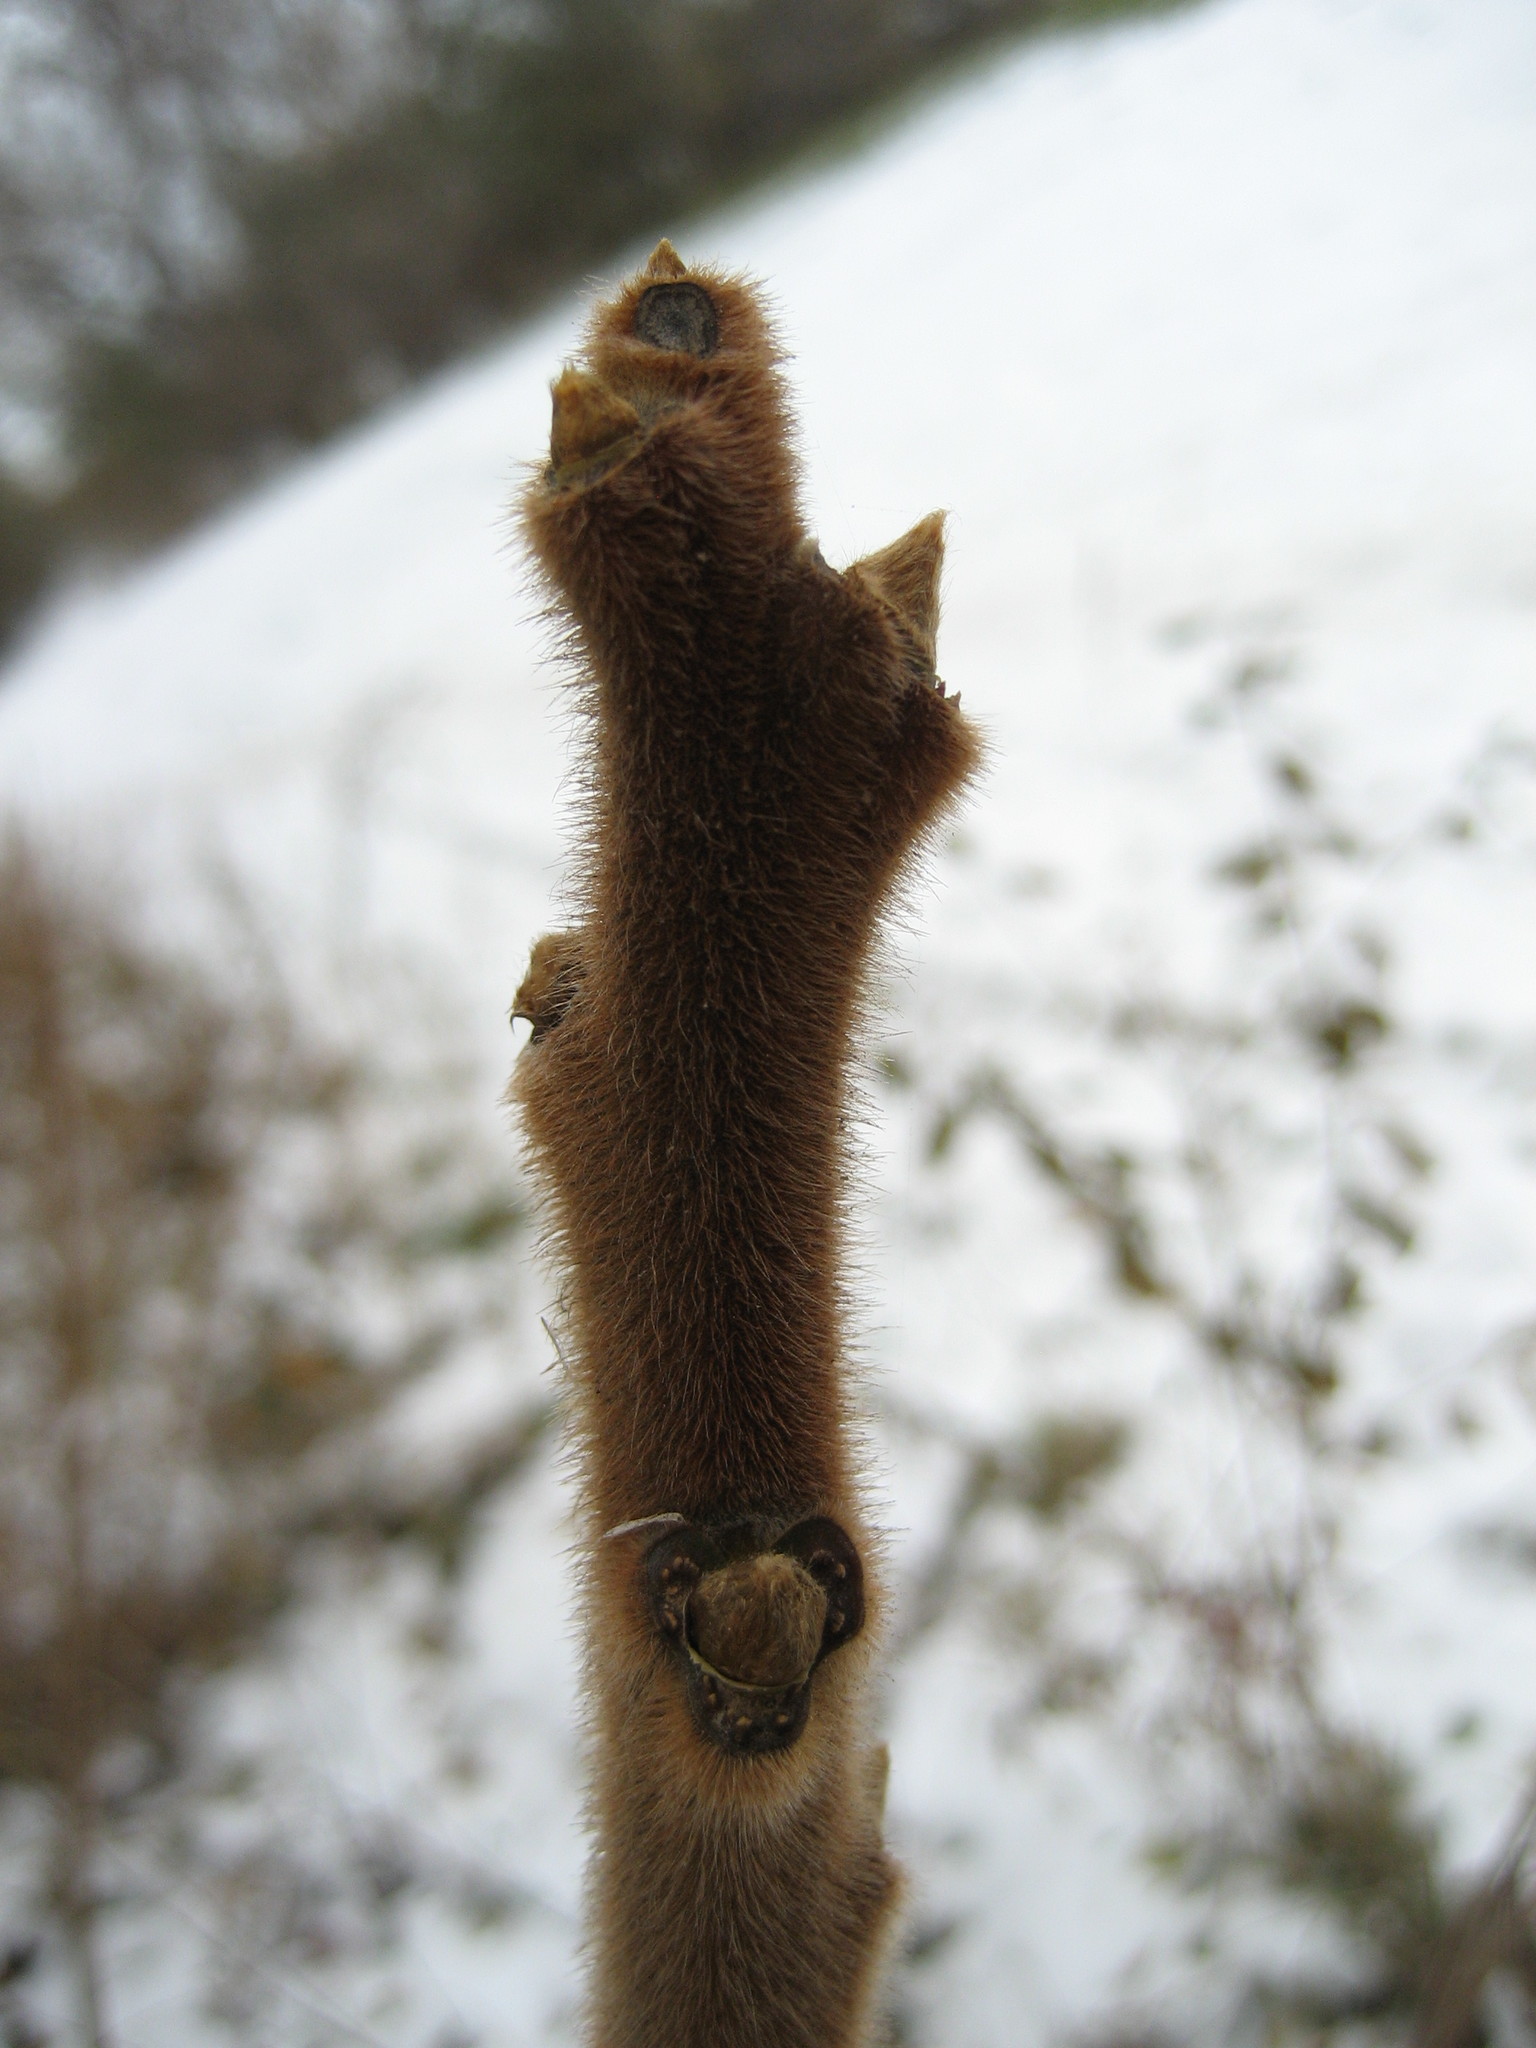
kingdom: Plantae
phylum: Tracheophyta
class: Magnoliopsida
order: Sapindales
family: Anacardiaceae
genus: Rhus
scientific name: Rhus typhina
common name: Staghorn sumac
